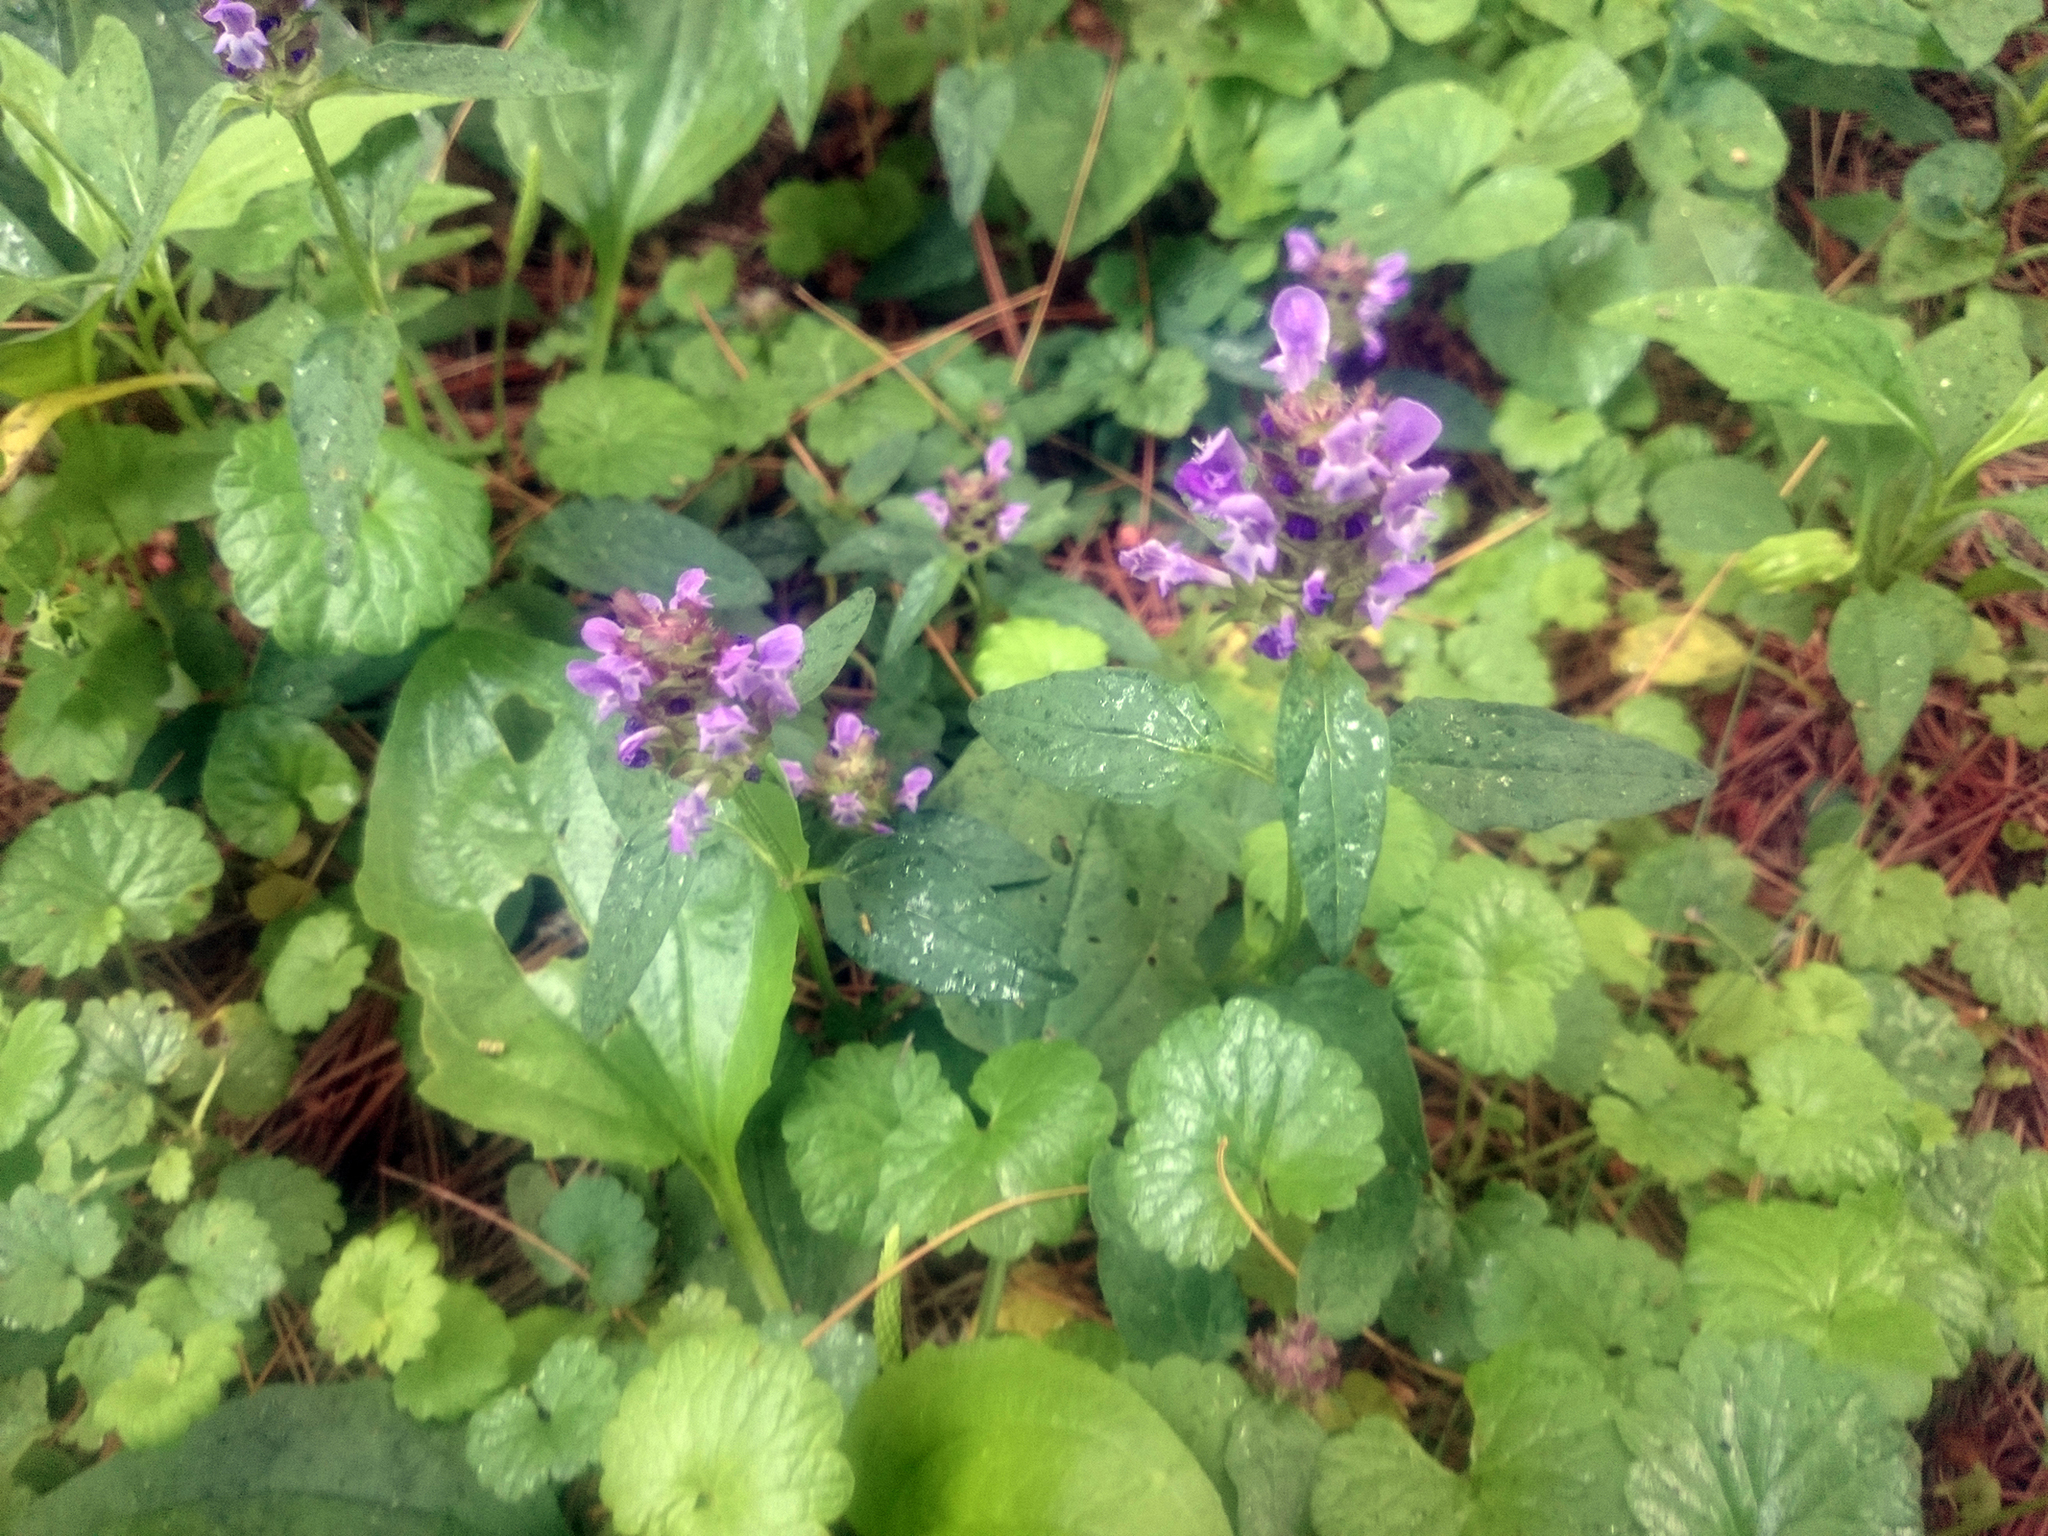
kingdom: Plantae
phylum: Tracheophyta
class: Magnoliopsida
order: Lamiales
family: Lamiaceae
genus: Prunella
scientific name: Prunella vulgaris
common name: Heal-all
